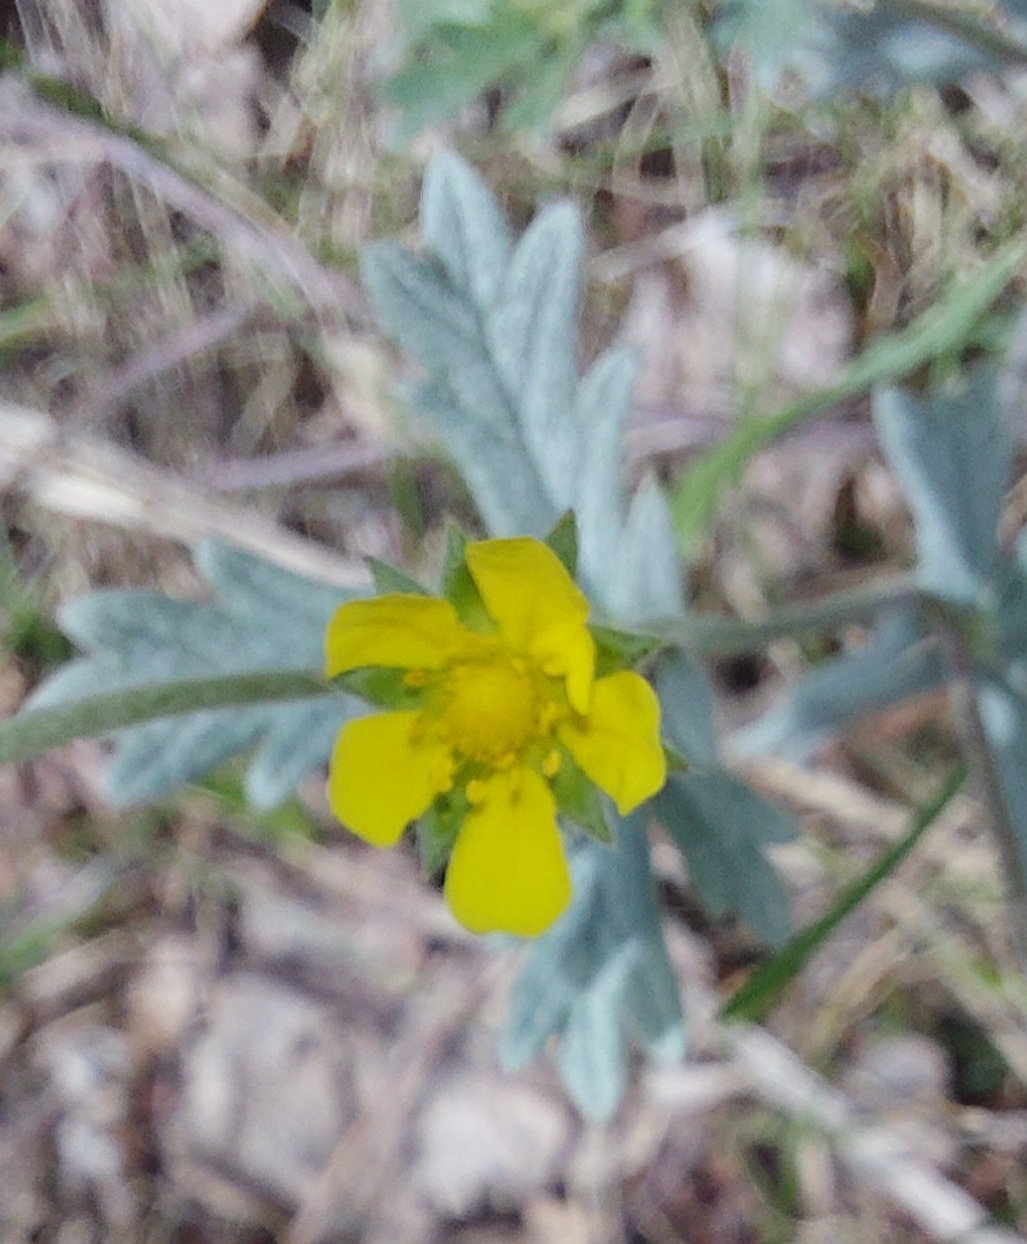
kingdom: Plantae
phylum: Tracheophyta
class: Magnoliopsida
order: Rosales
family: Rosaceae
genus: Potentilla
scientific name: Potentilla argentea
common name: Hoary cinquefoil
